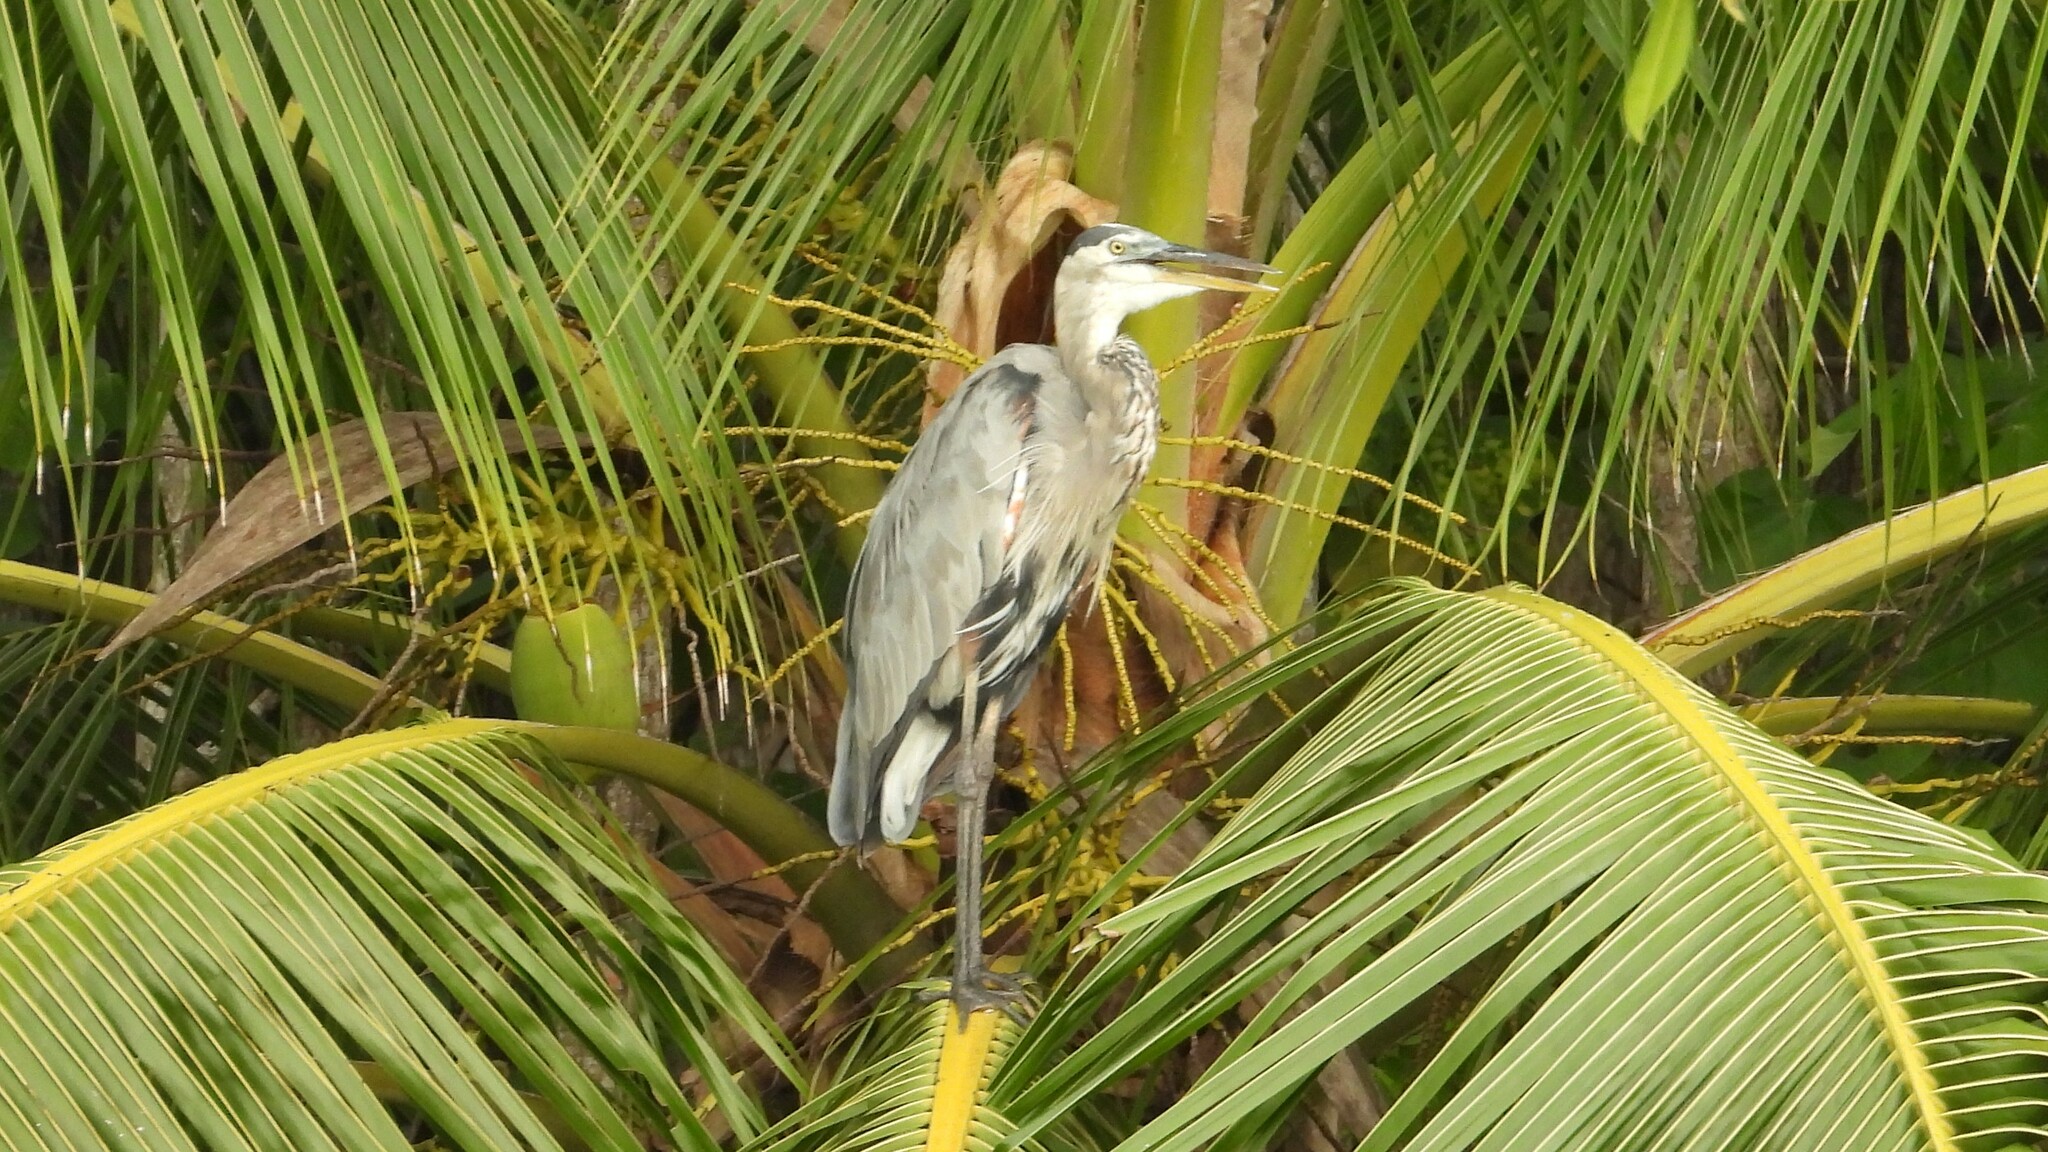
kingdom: Animalia
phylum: Chordata
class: Aves
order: Pelecaniformes
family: Ardeidae
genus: Ardea
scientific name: Ardea herodias
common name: Great blue heron
